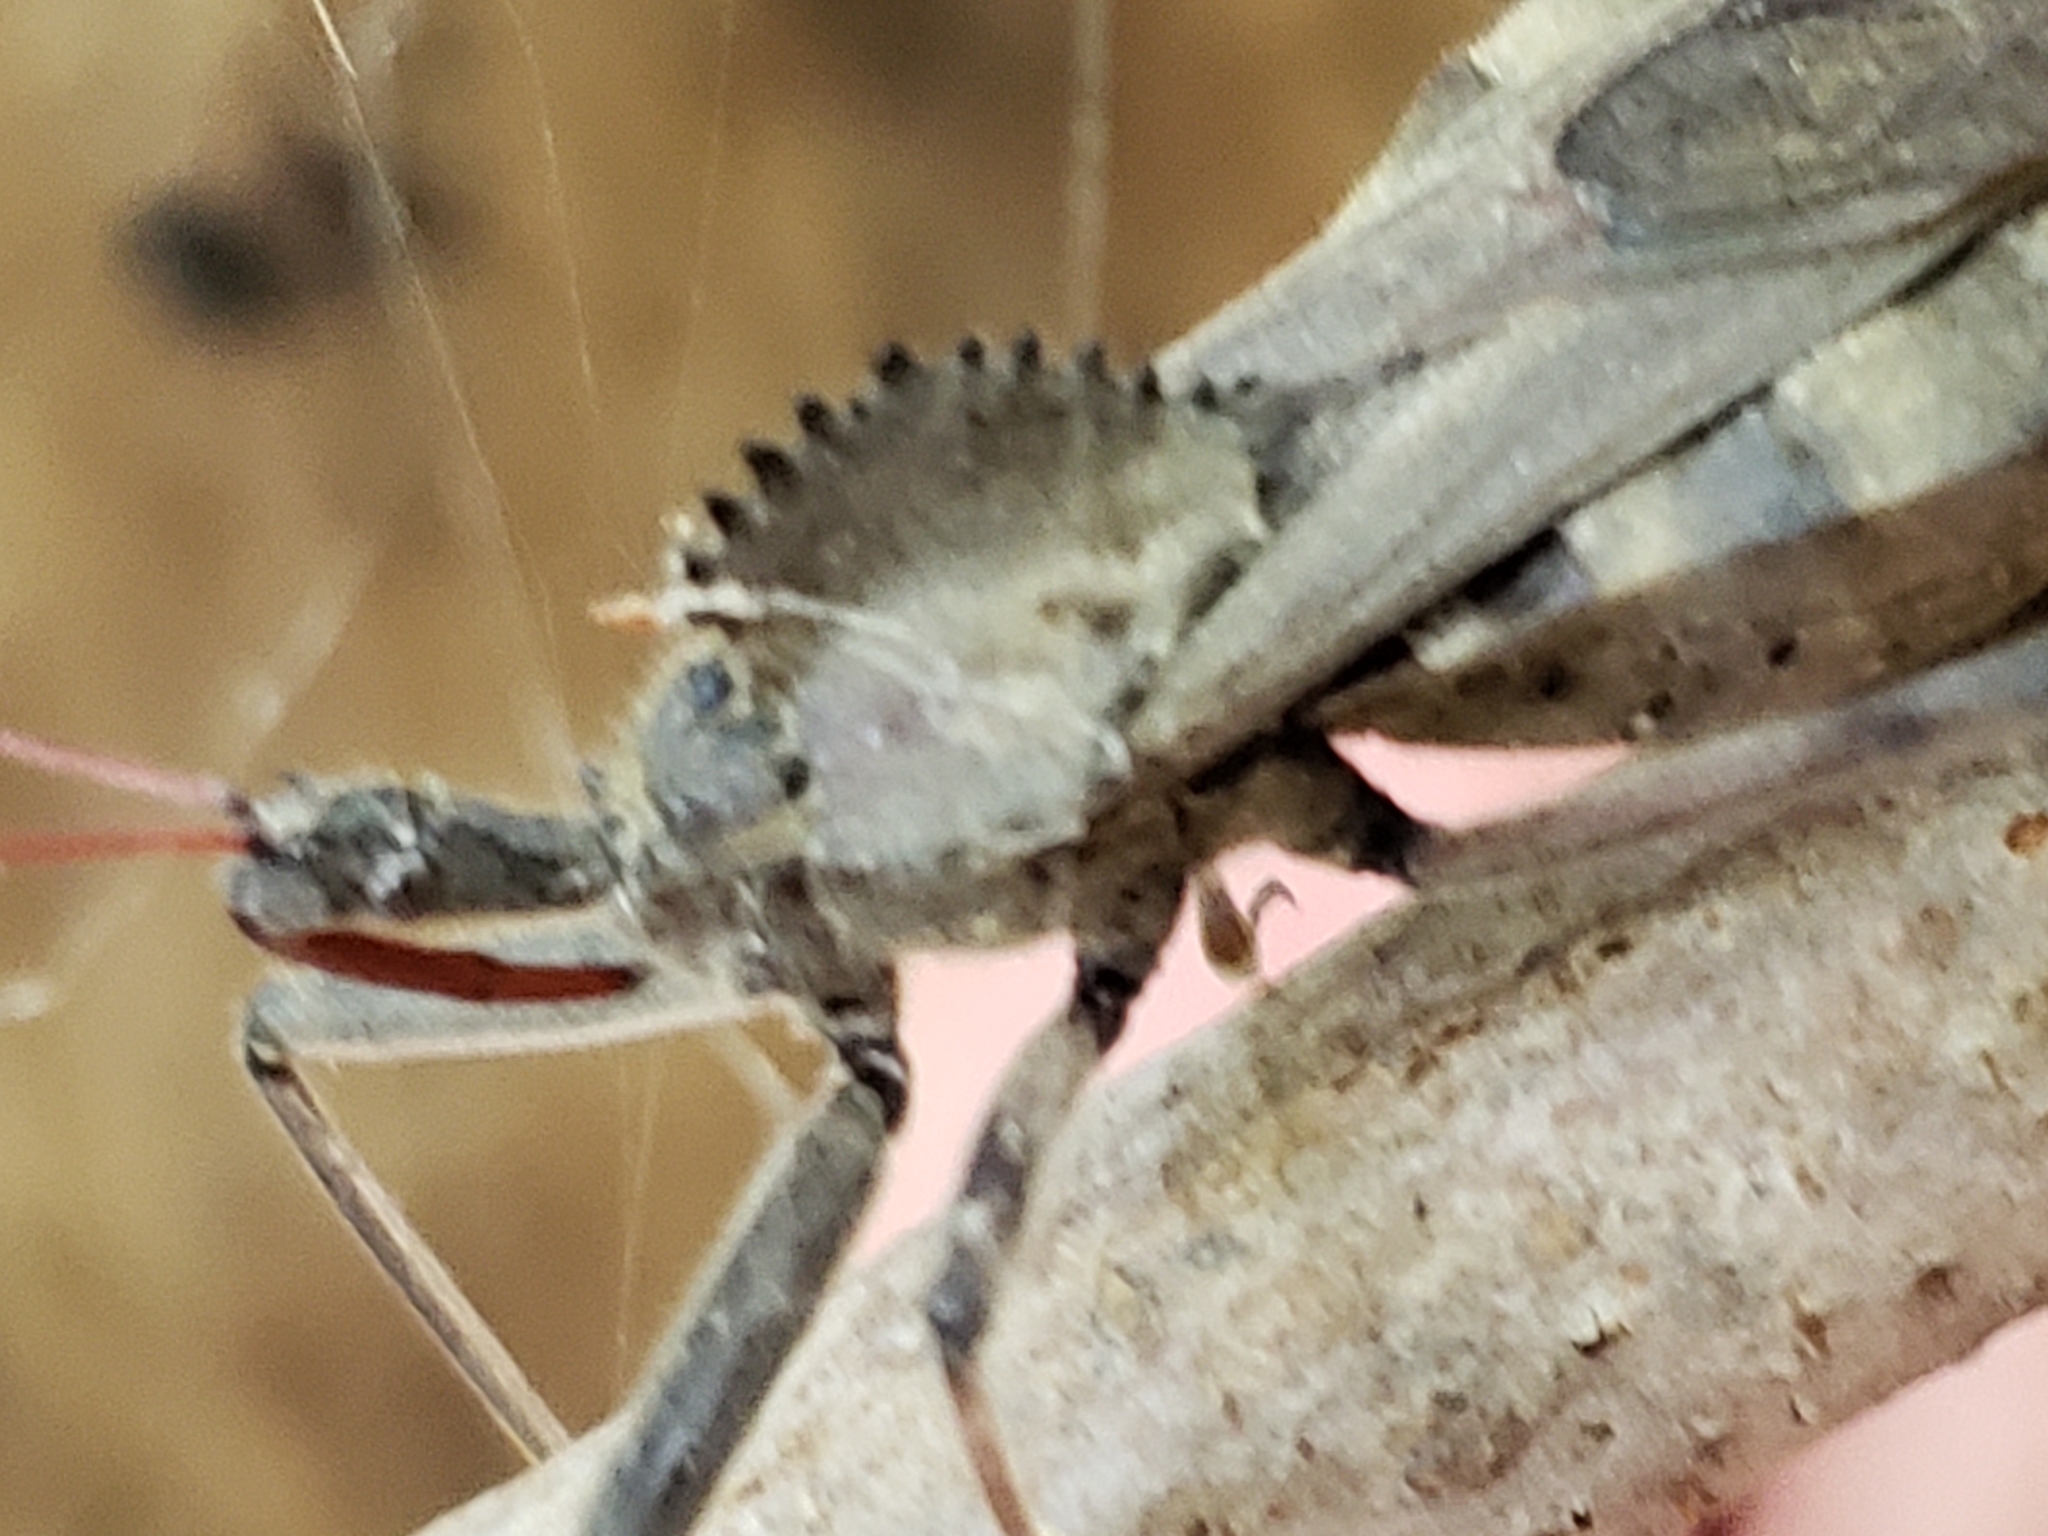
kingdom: Animalia
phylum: Arthropoda
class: Insecta
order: Hemiptera
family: Reduviidae
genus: Arilus
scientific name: Arilus cristatus
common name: North american wheel bug
